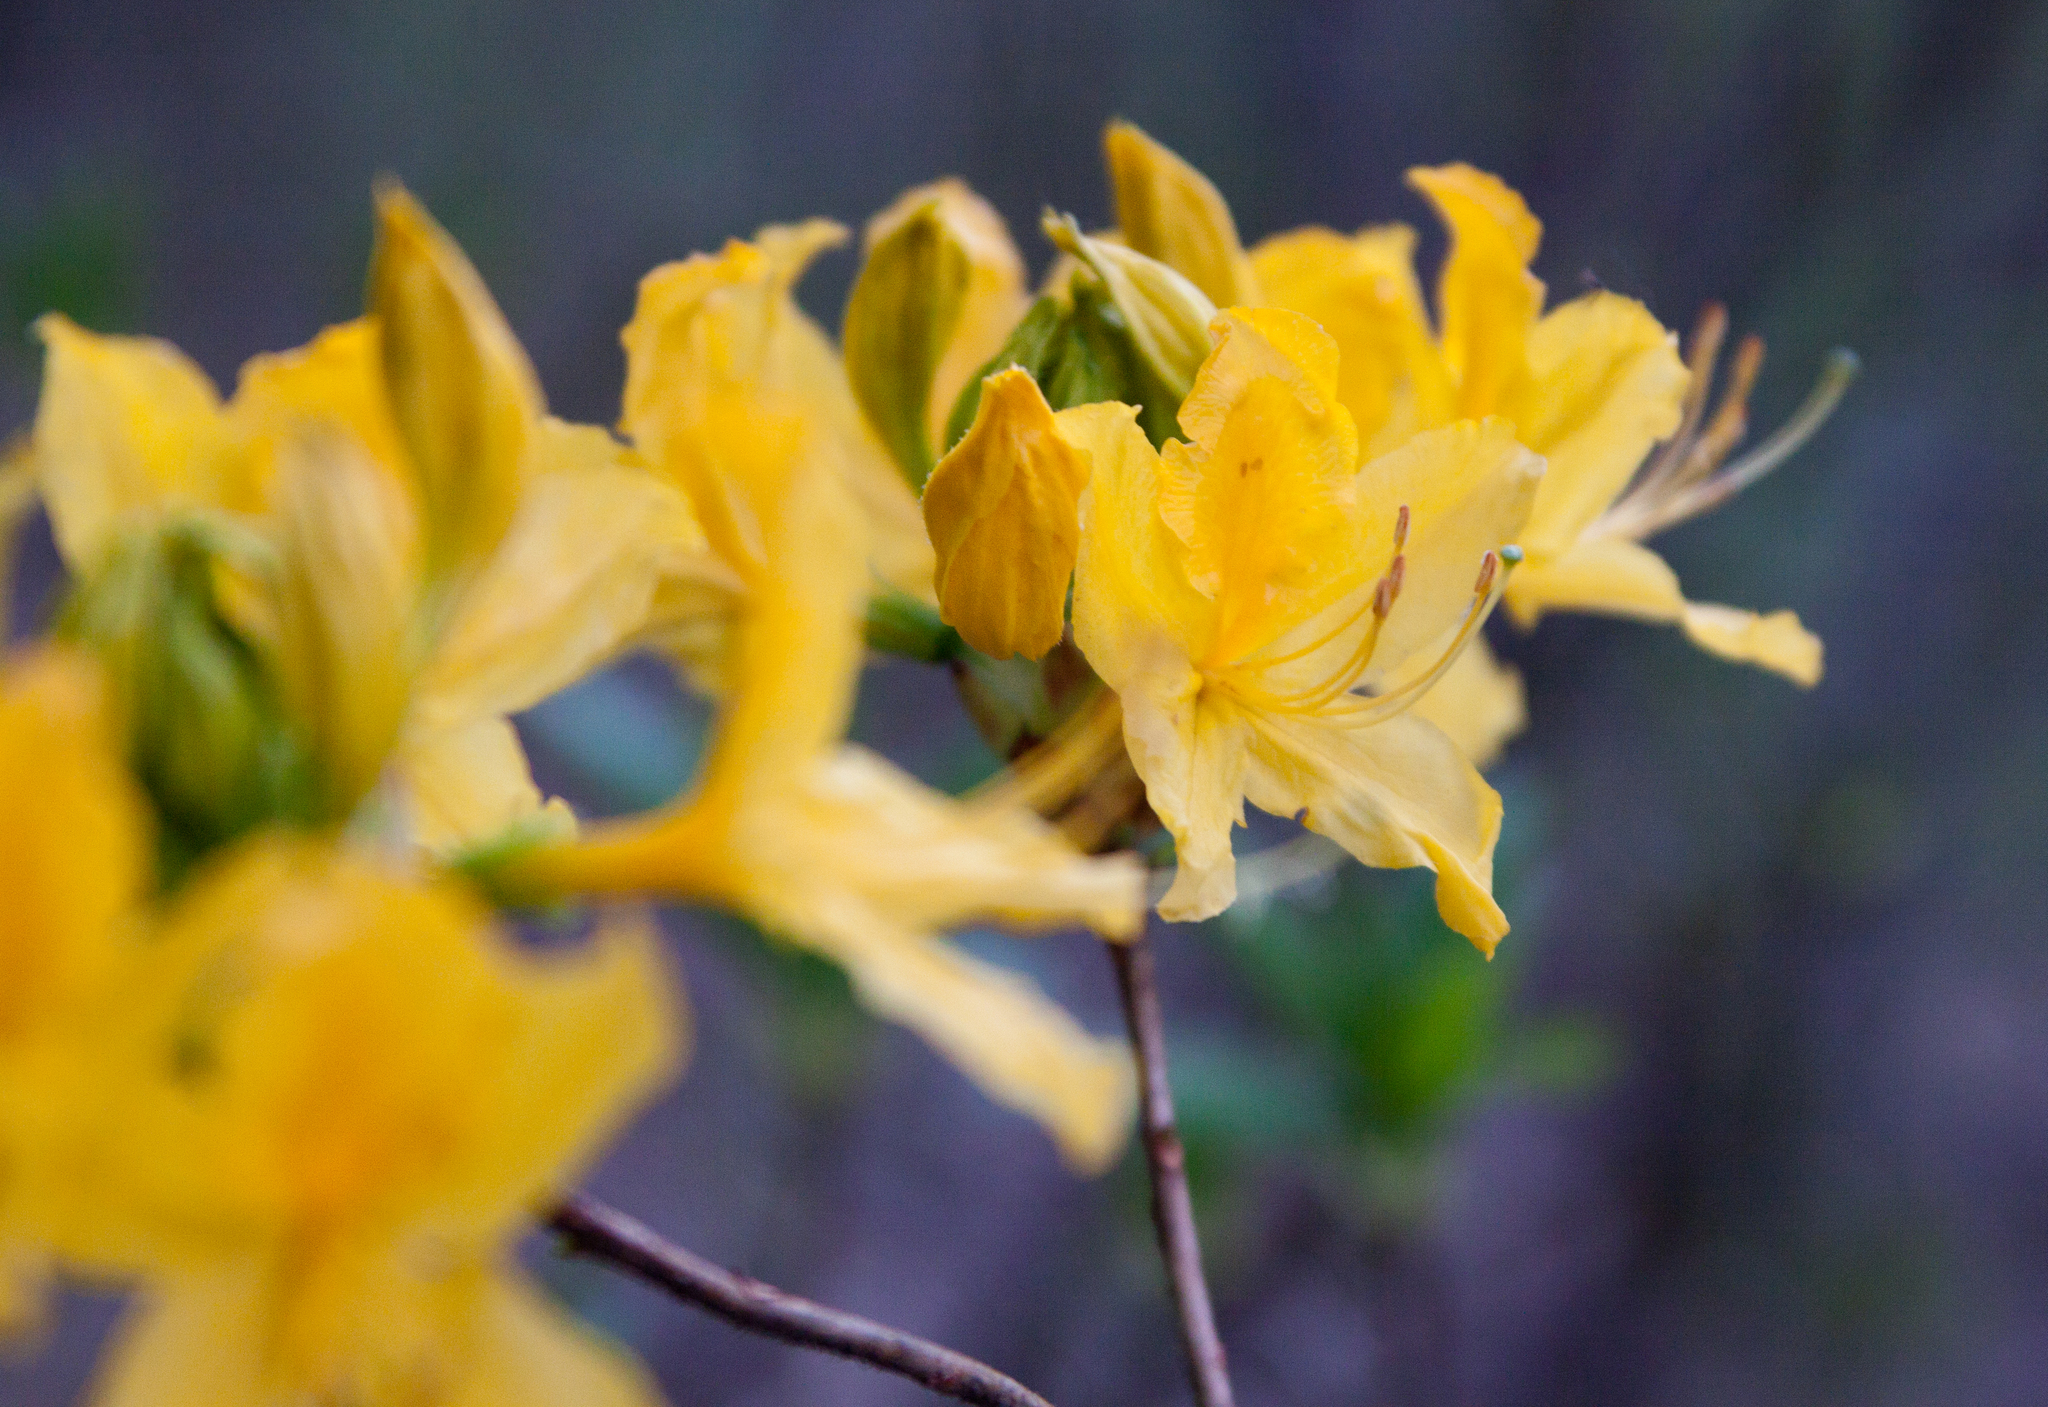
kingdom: Plantae
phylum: Tracheophyta
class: Magnoliopsida
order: Ericales
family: Ericaceae
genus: Rhododendron
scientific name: Rhododendron luteum
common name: Yellow azalea
